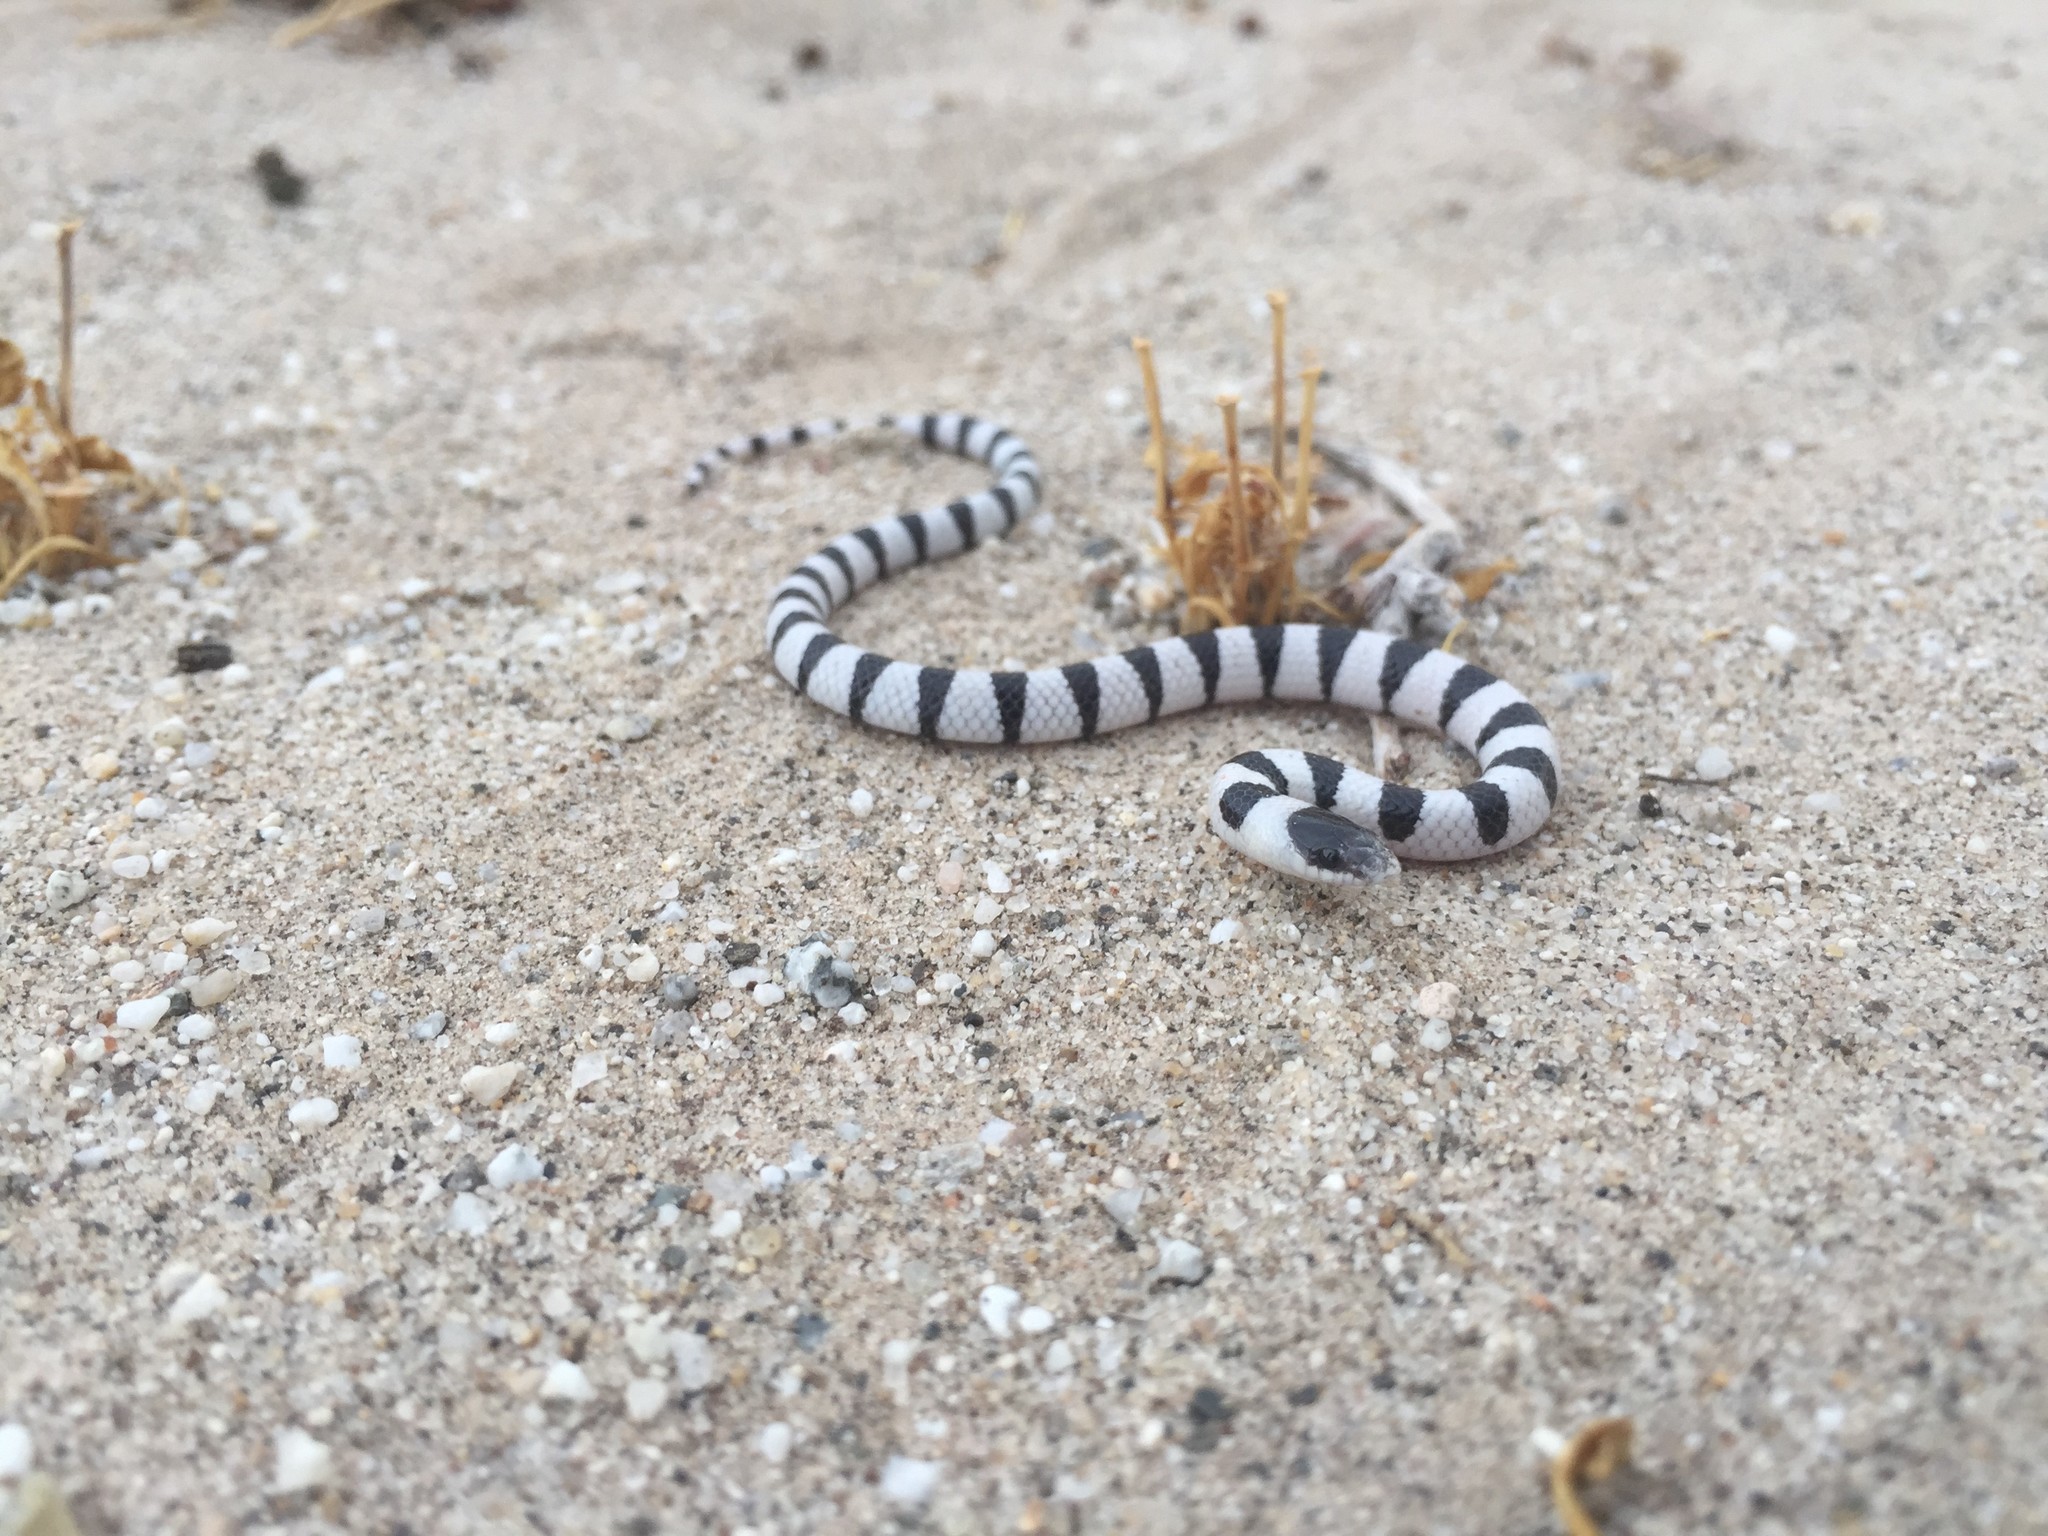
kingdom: Animalia
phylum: Chordata
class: Squamata
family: Colubridae
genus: Sonora
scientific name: Sonora annulata
